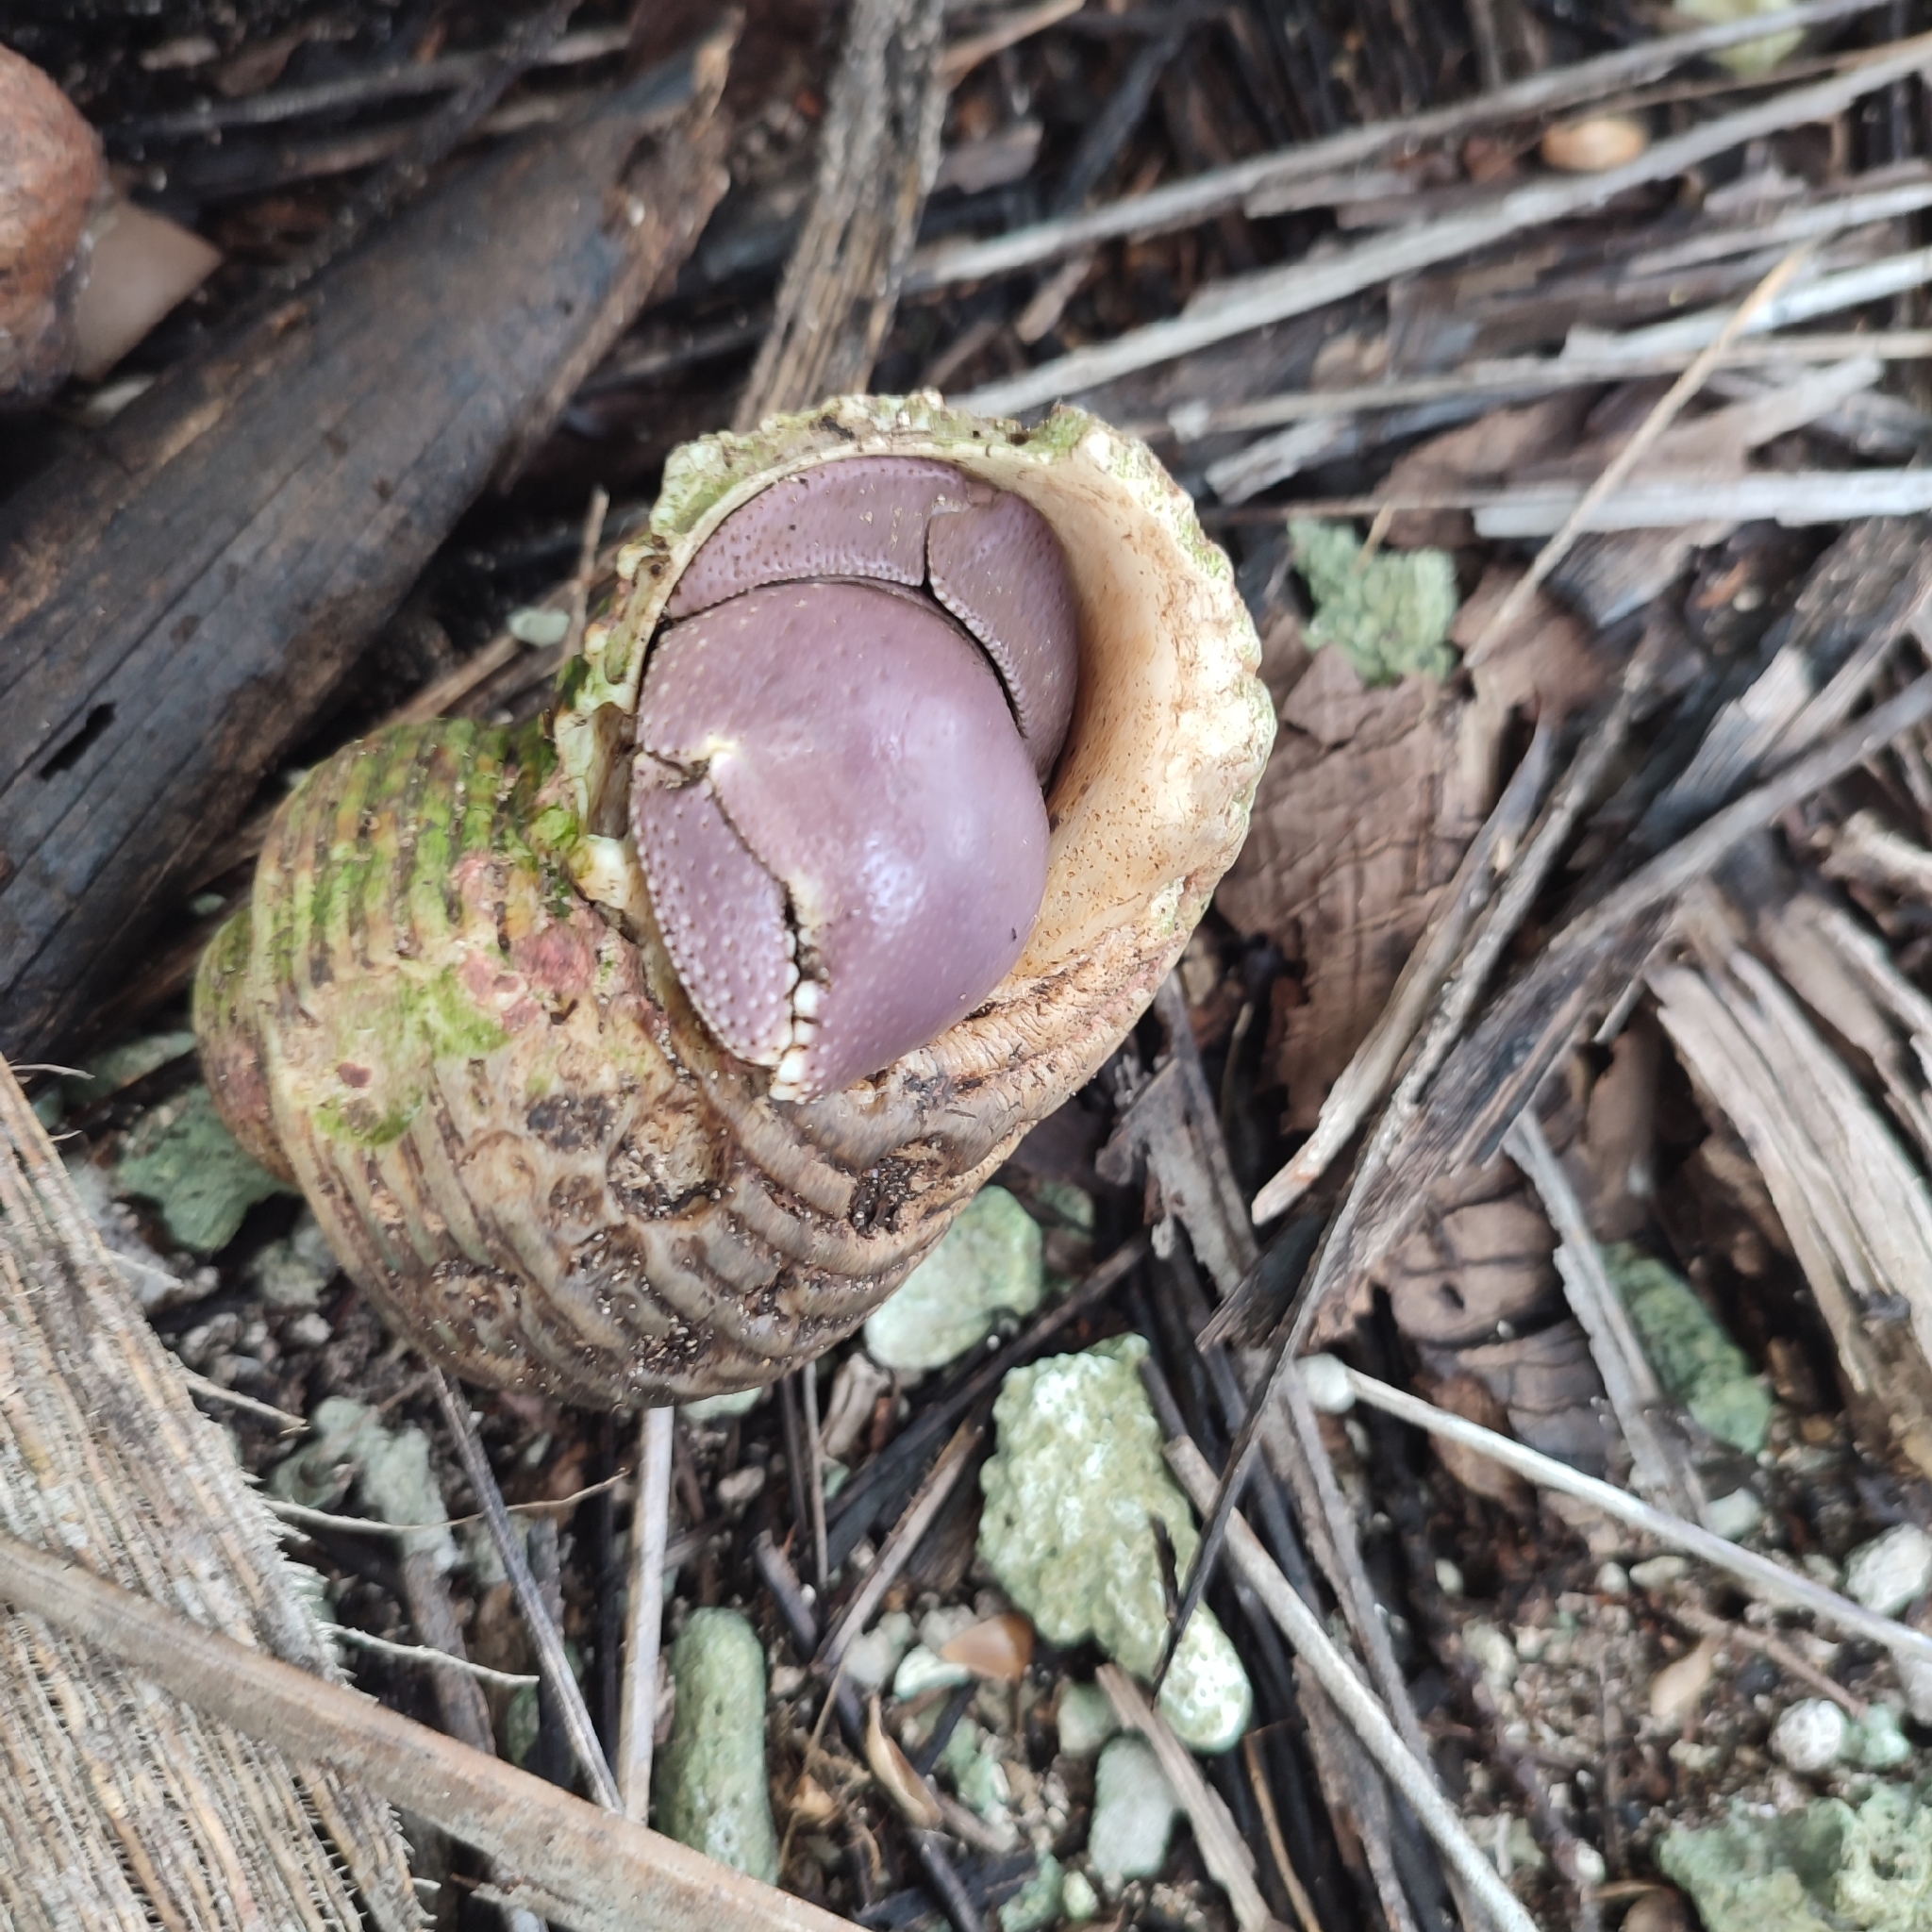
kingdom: Animalia
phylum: Arthropoda
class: Malacostraca
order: Decapoda
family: Coenobitidae
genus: Coenobita
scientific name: Coenobita brevimanus
